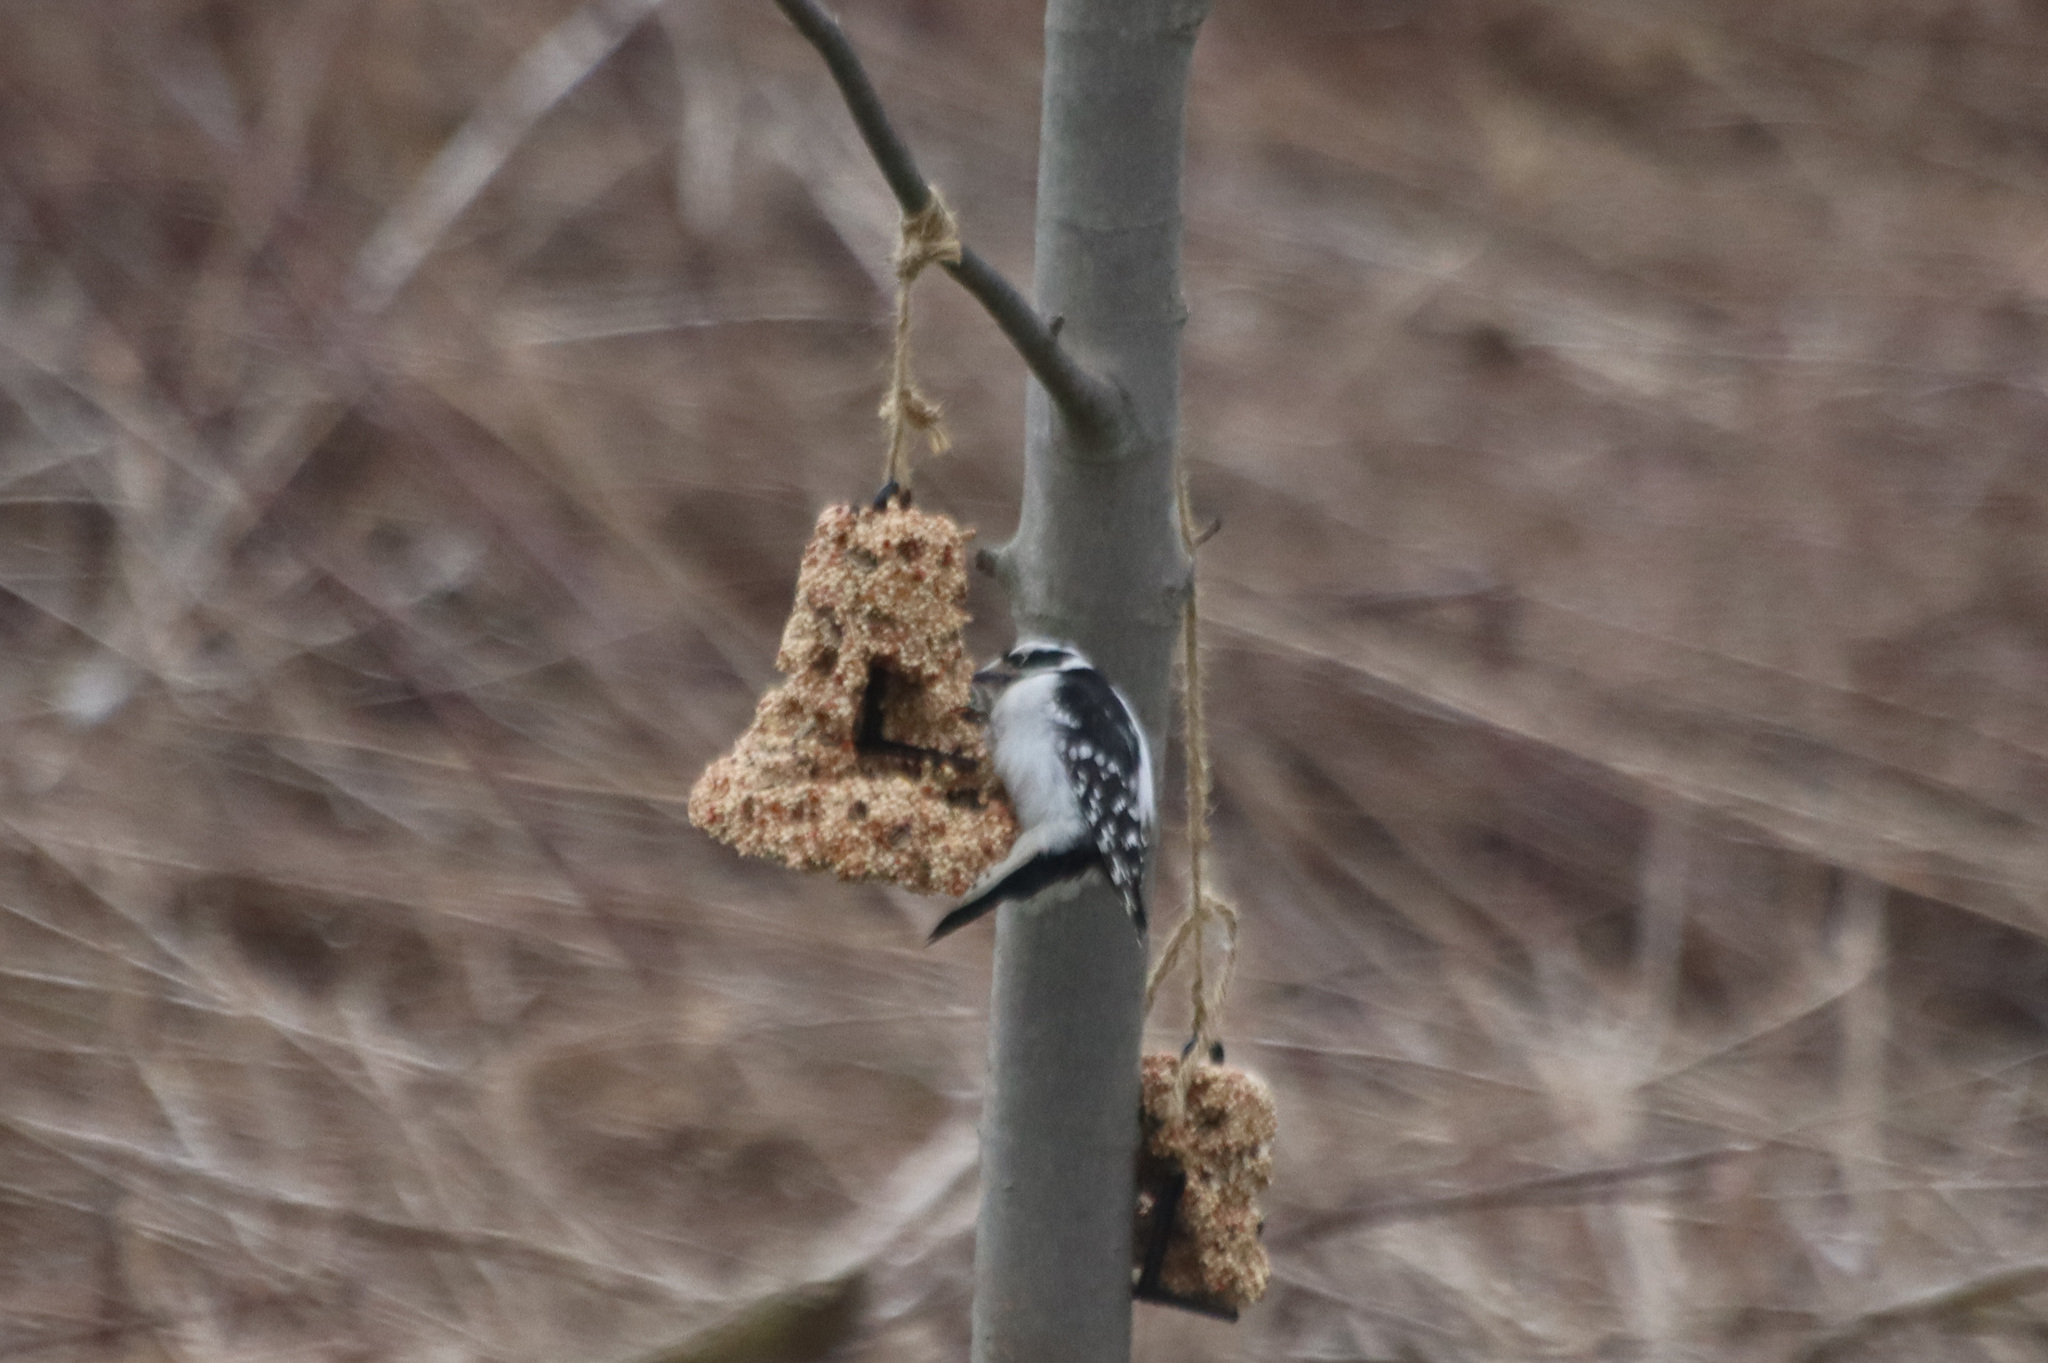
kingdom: Animalia
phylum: Chordata
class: Aves
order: Piciformes
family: Picidae
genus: Dryobates
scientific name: Dryobates pubescens
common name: Downy woodpecker
